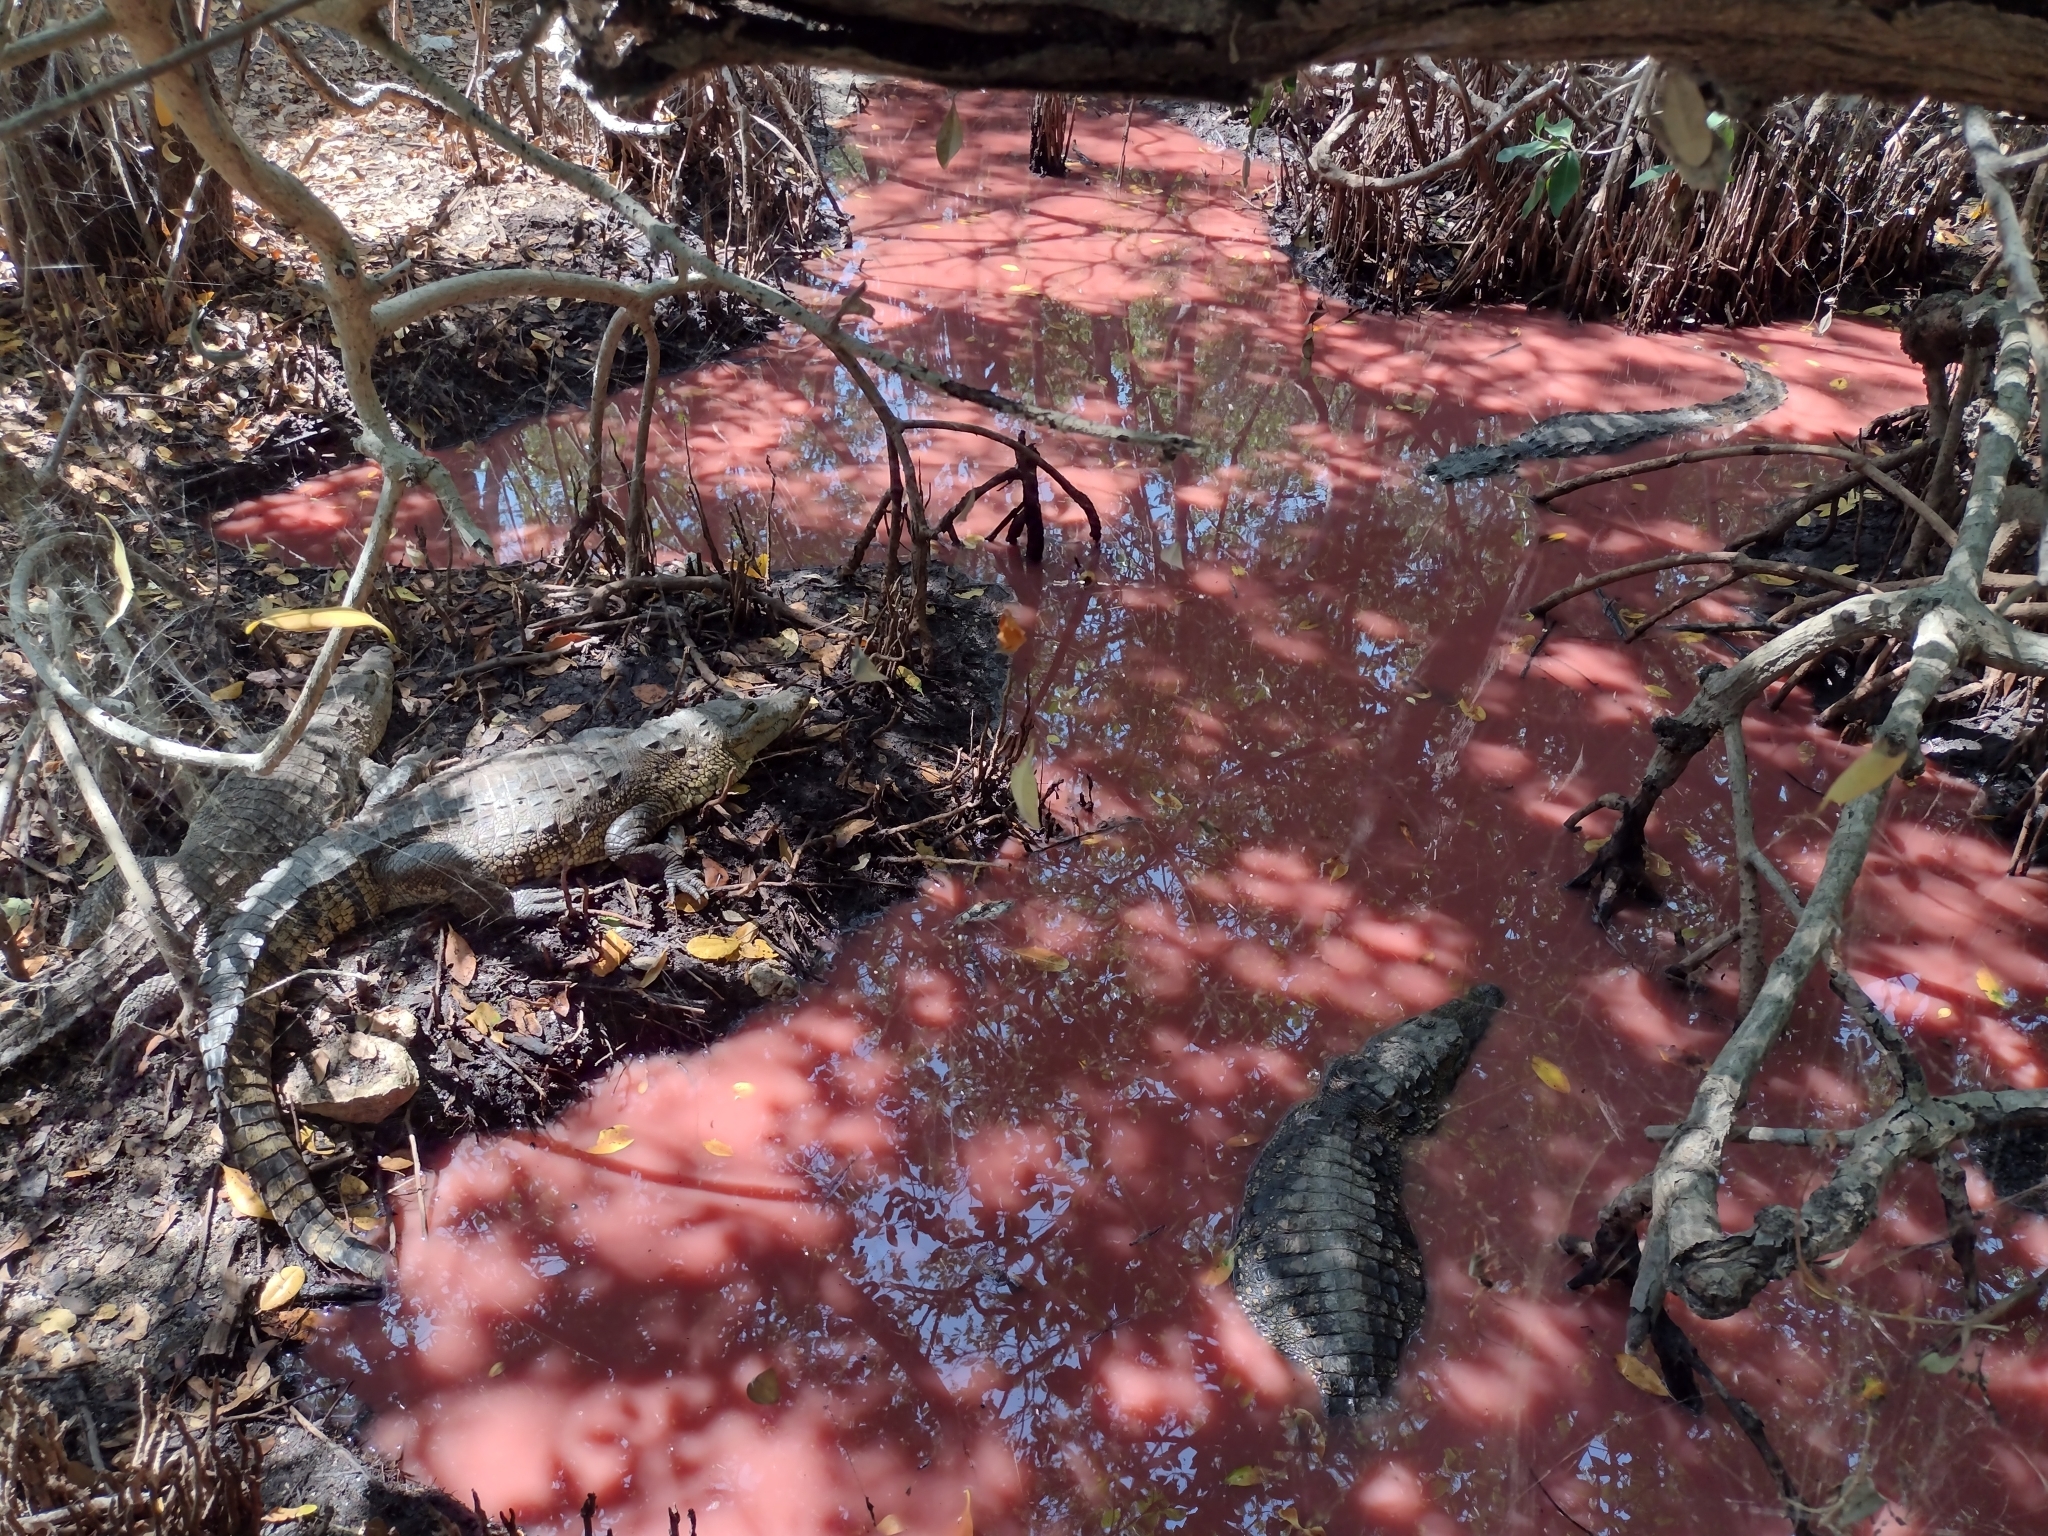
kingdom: Animalia
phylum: Chordata
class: Crocodylia
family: Crocodylidae
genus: Crocodylus
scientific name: Crocodylus moreletii
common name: Morelet's crocodile
